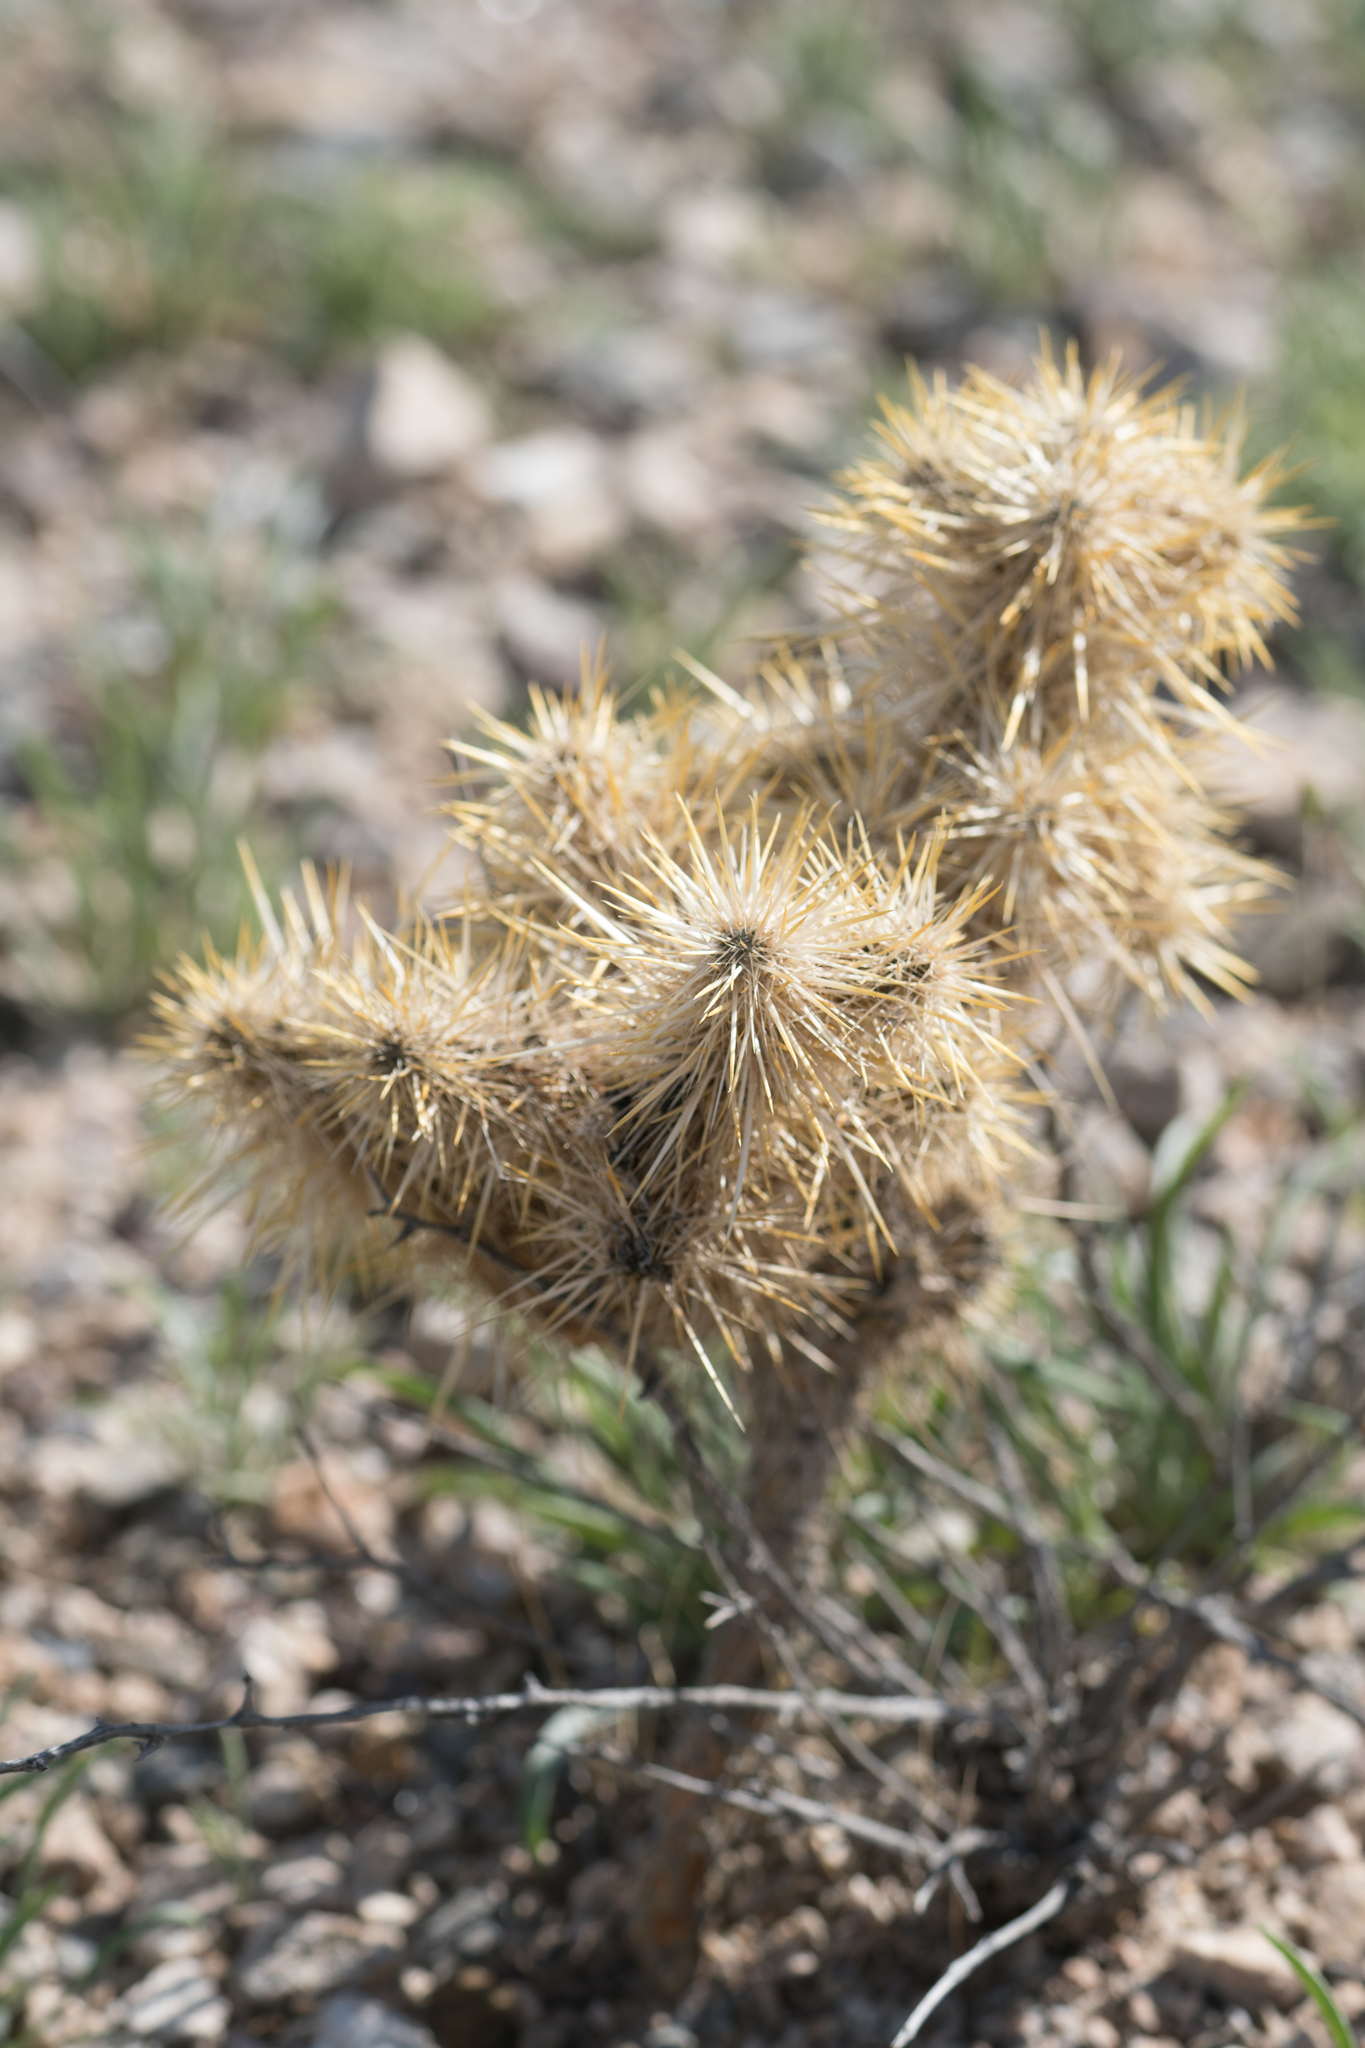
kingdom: Plantae
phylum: Tracheophyta
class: Magnoliopsida
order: Caryophyllales
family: Cactaceae
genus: Cylindropuntia
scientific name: Cylindropuntia echinocarpa
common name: Ground cholla
